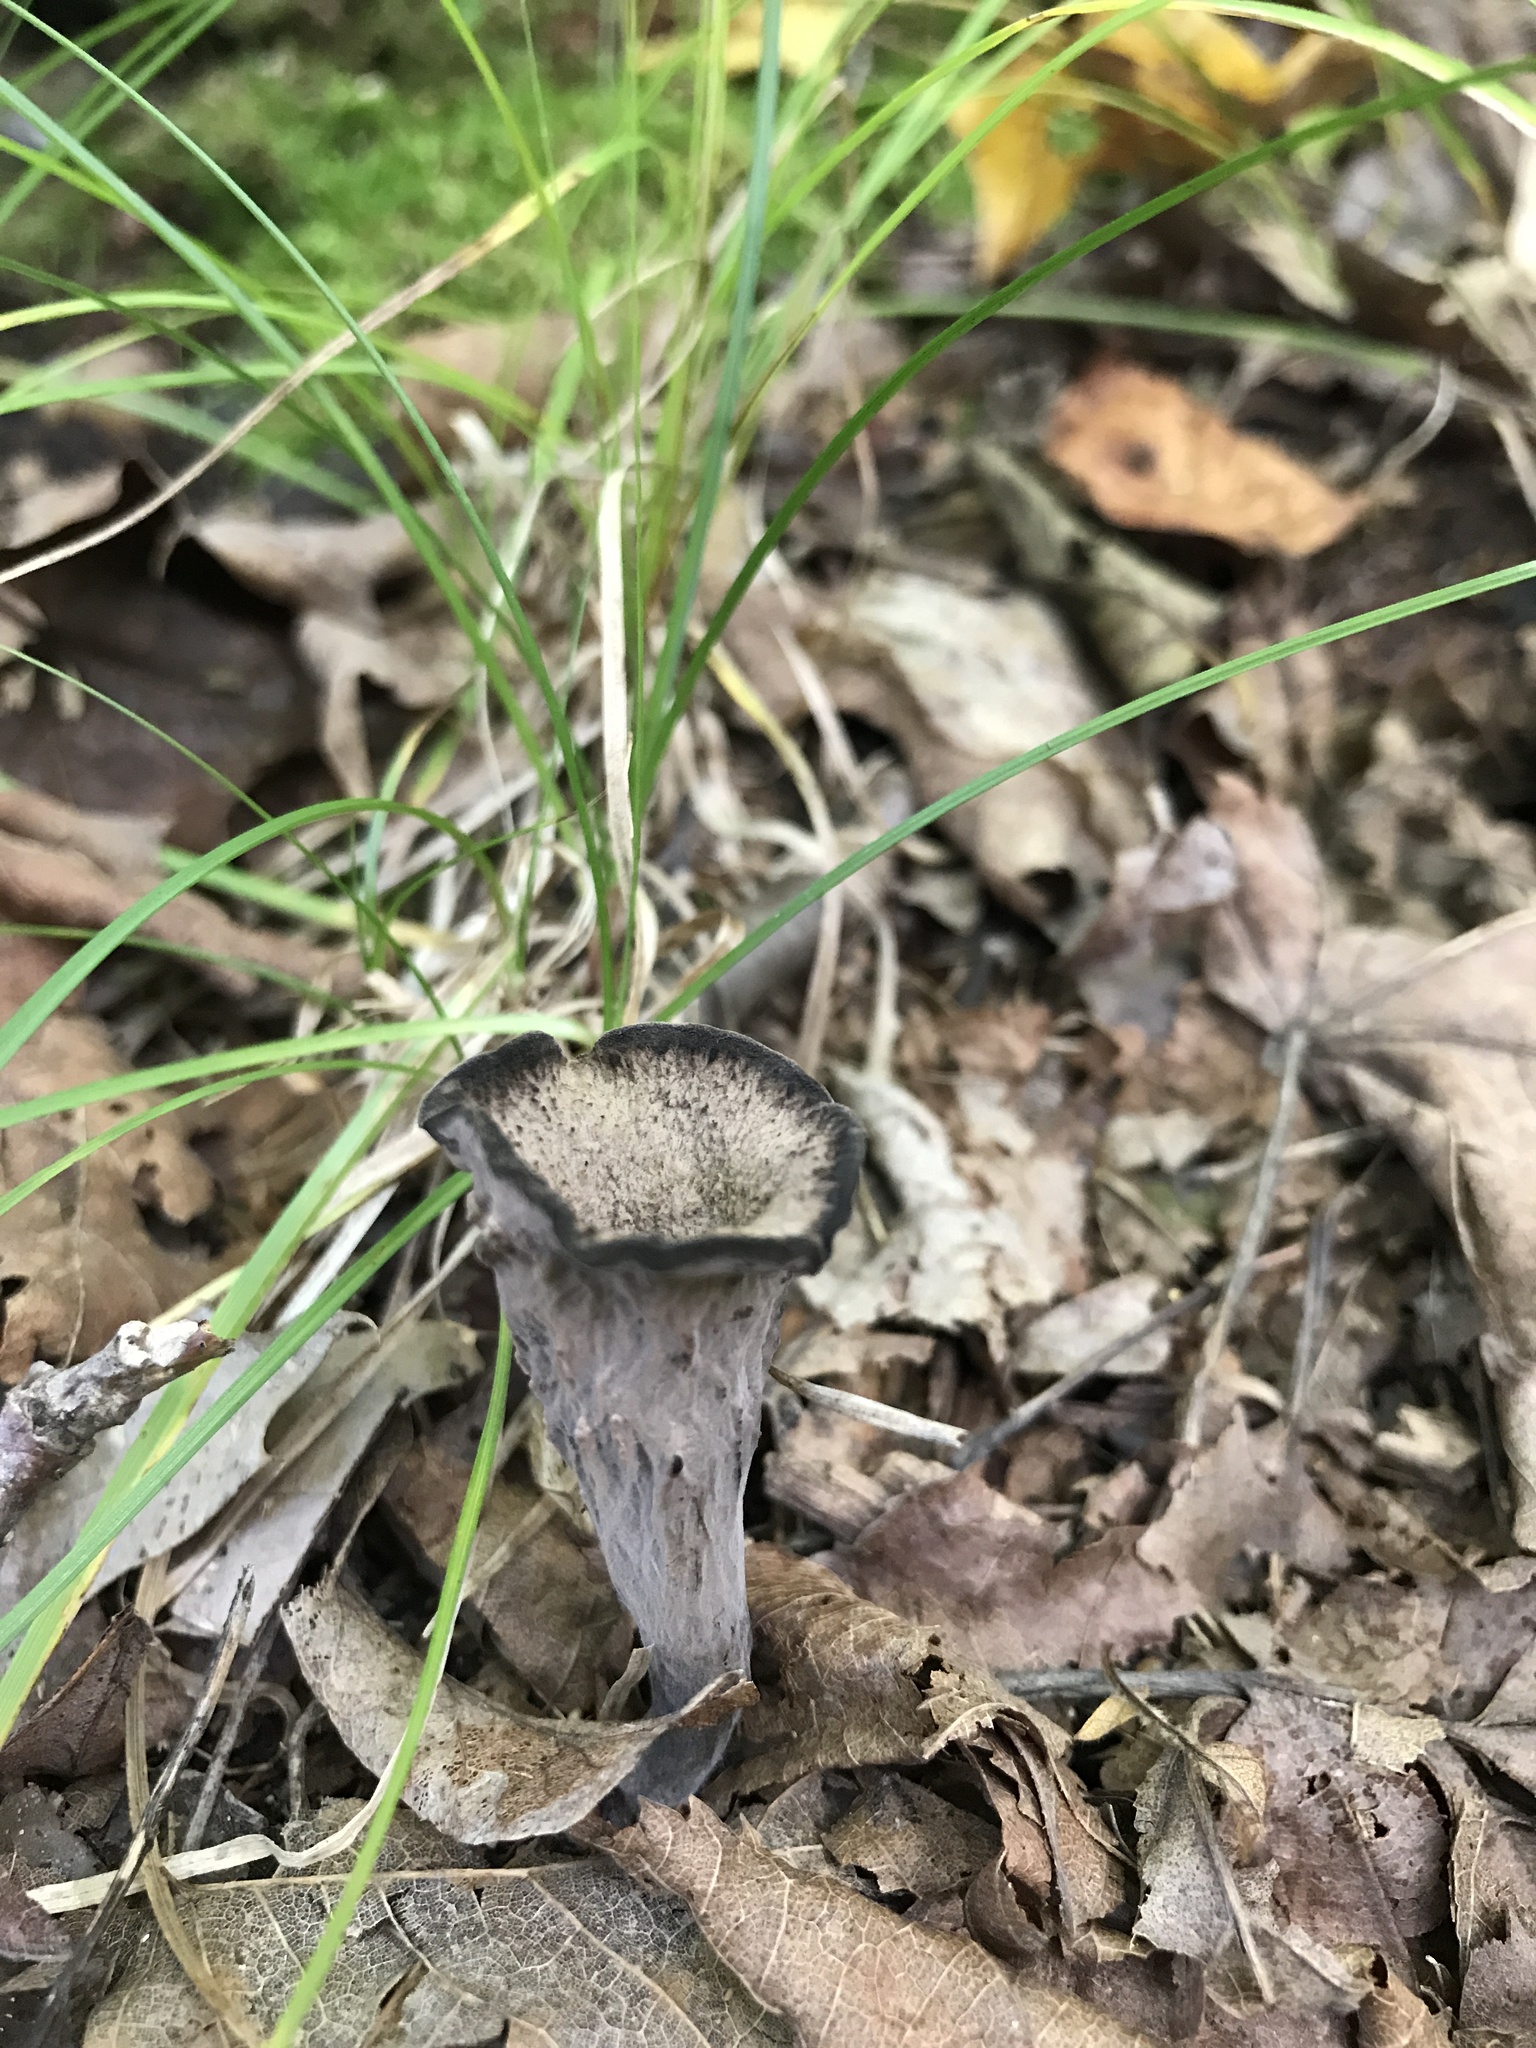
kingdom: Fungi
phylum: Basidiomycota
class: Agaricomycetes
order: Cantharellales
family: Hydnaceae
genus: Craterellus
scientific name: Craterellus cornucopioides
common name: Horn of plenty
